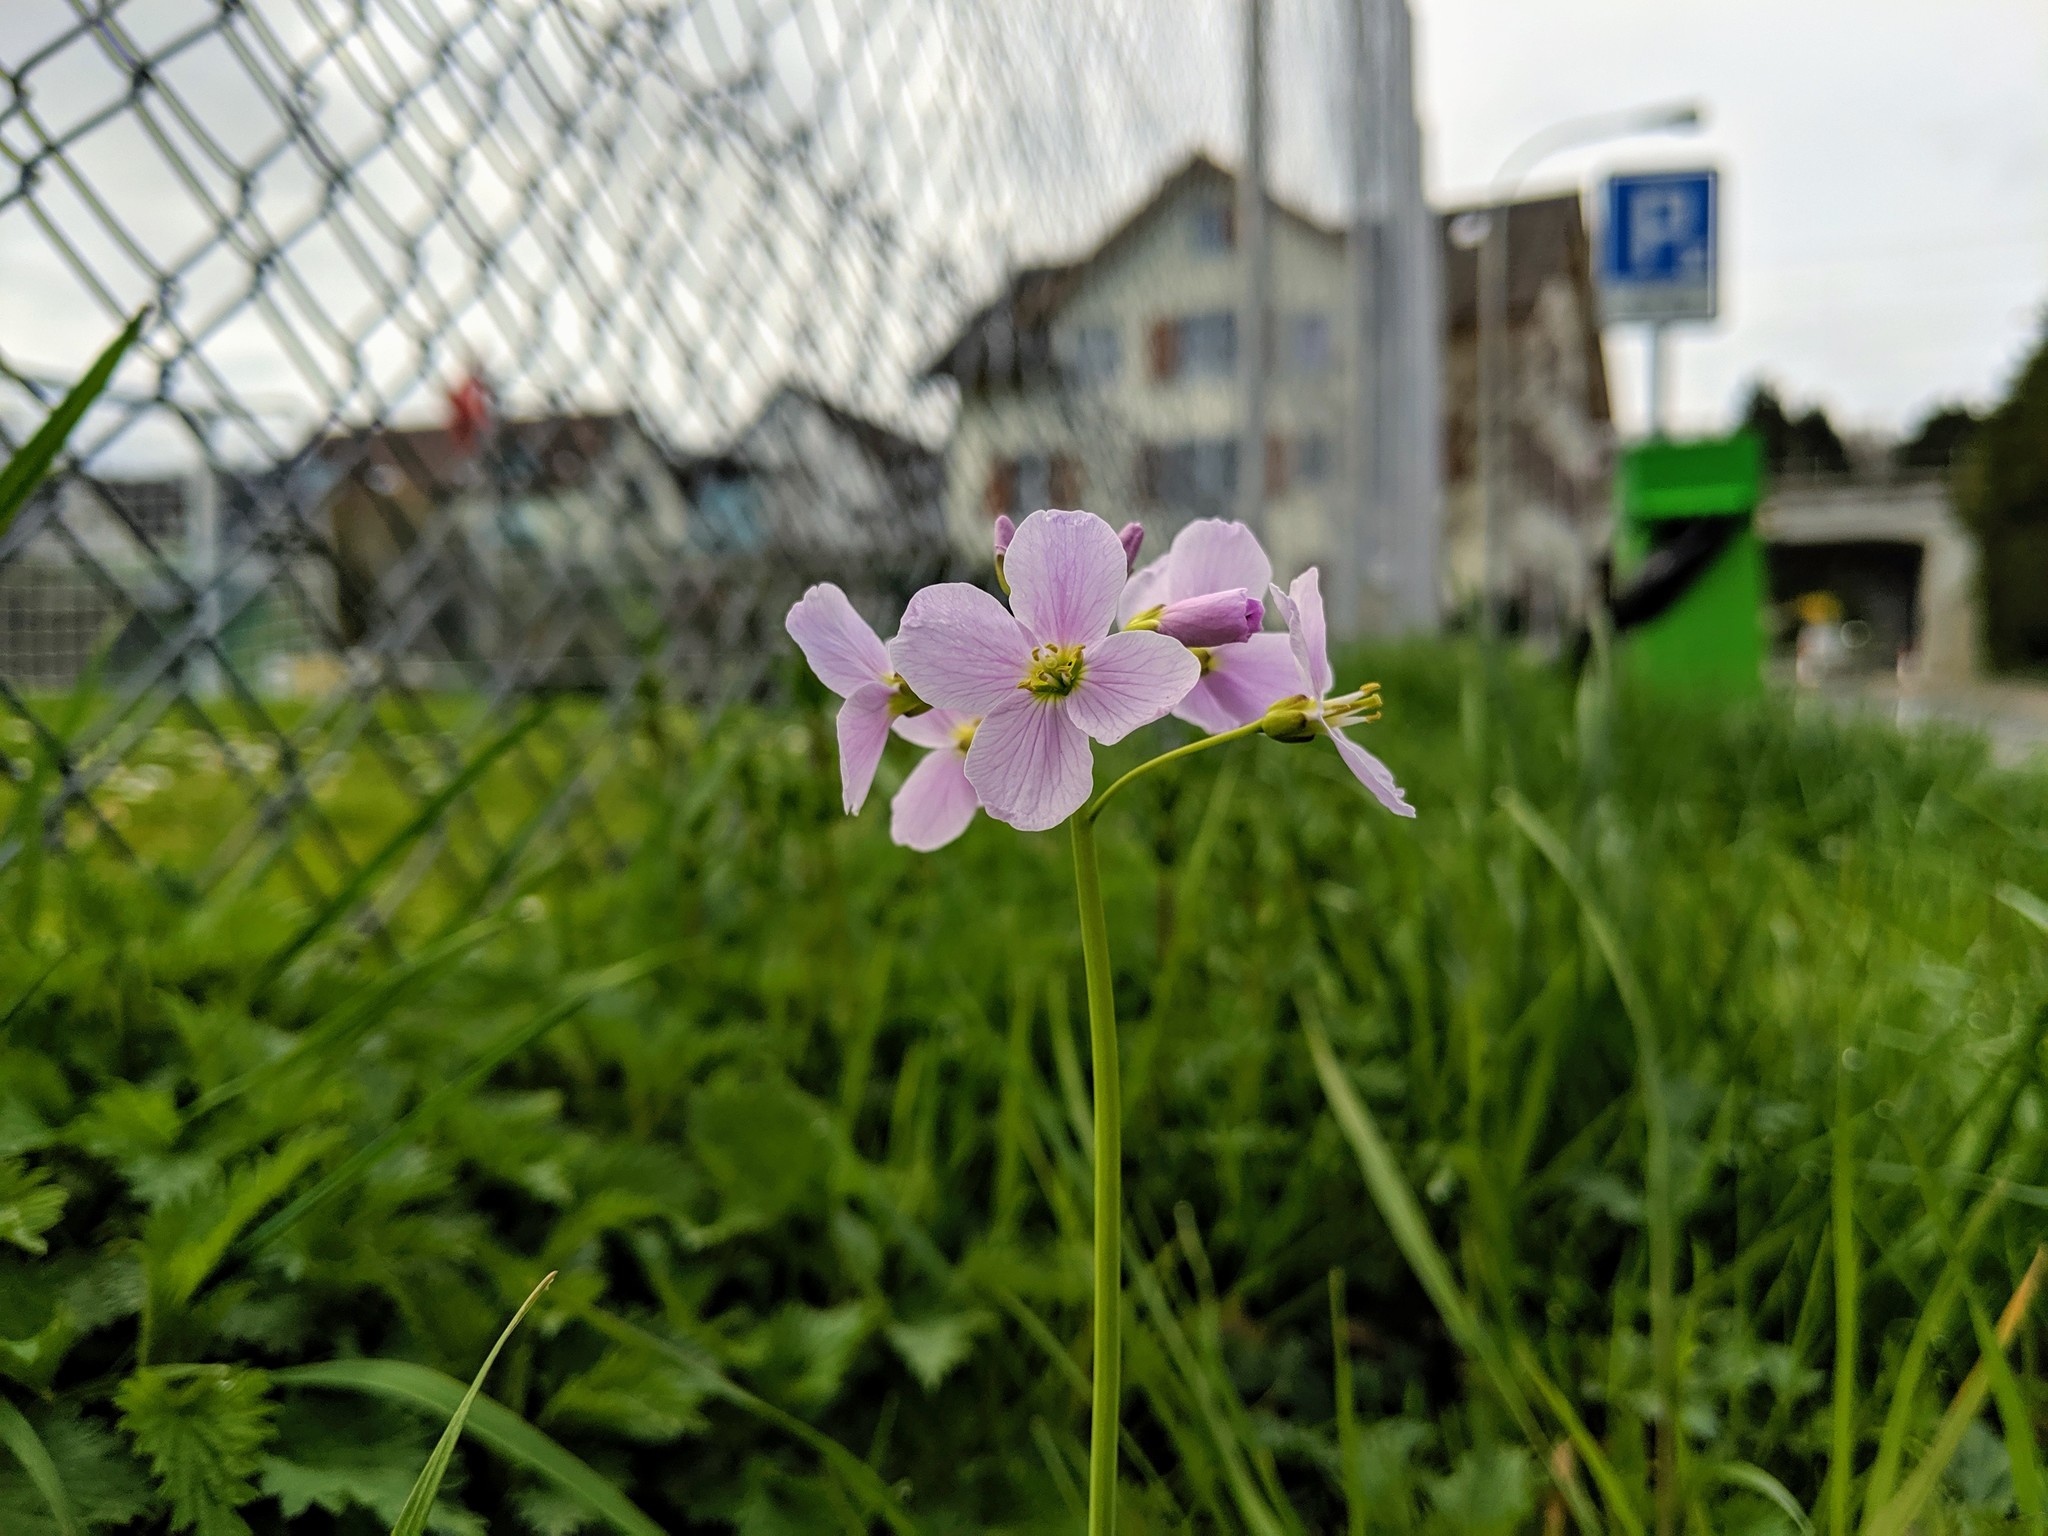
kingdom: Plantae
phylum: Tracheophyta
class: Magnoliopsida
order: Brassicales
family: Brassicaceae
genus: Cardamine
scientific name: Cardamine pratensis
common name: Cuckoo flower
